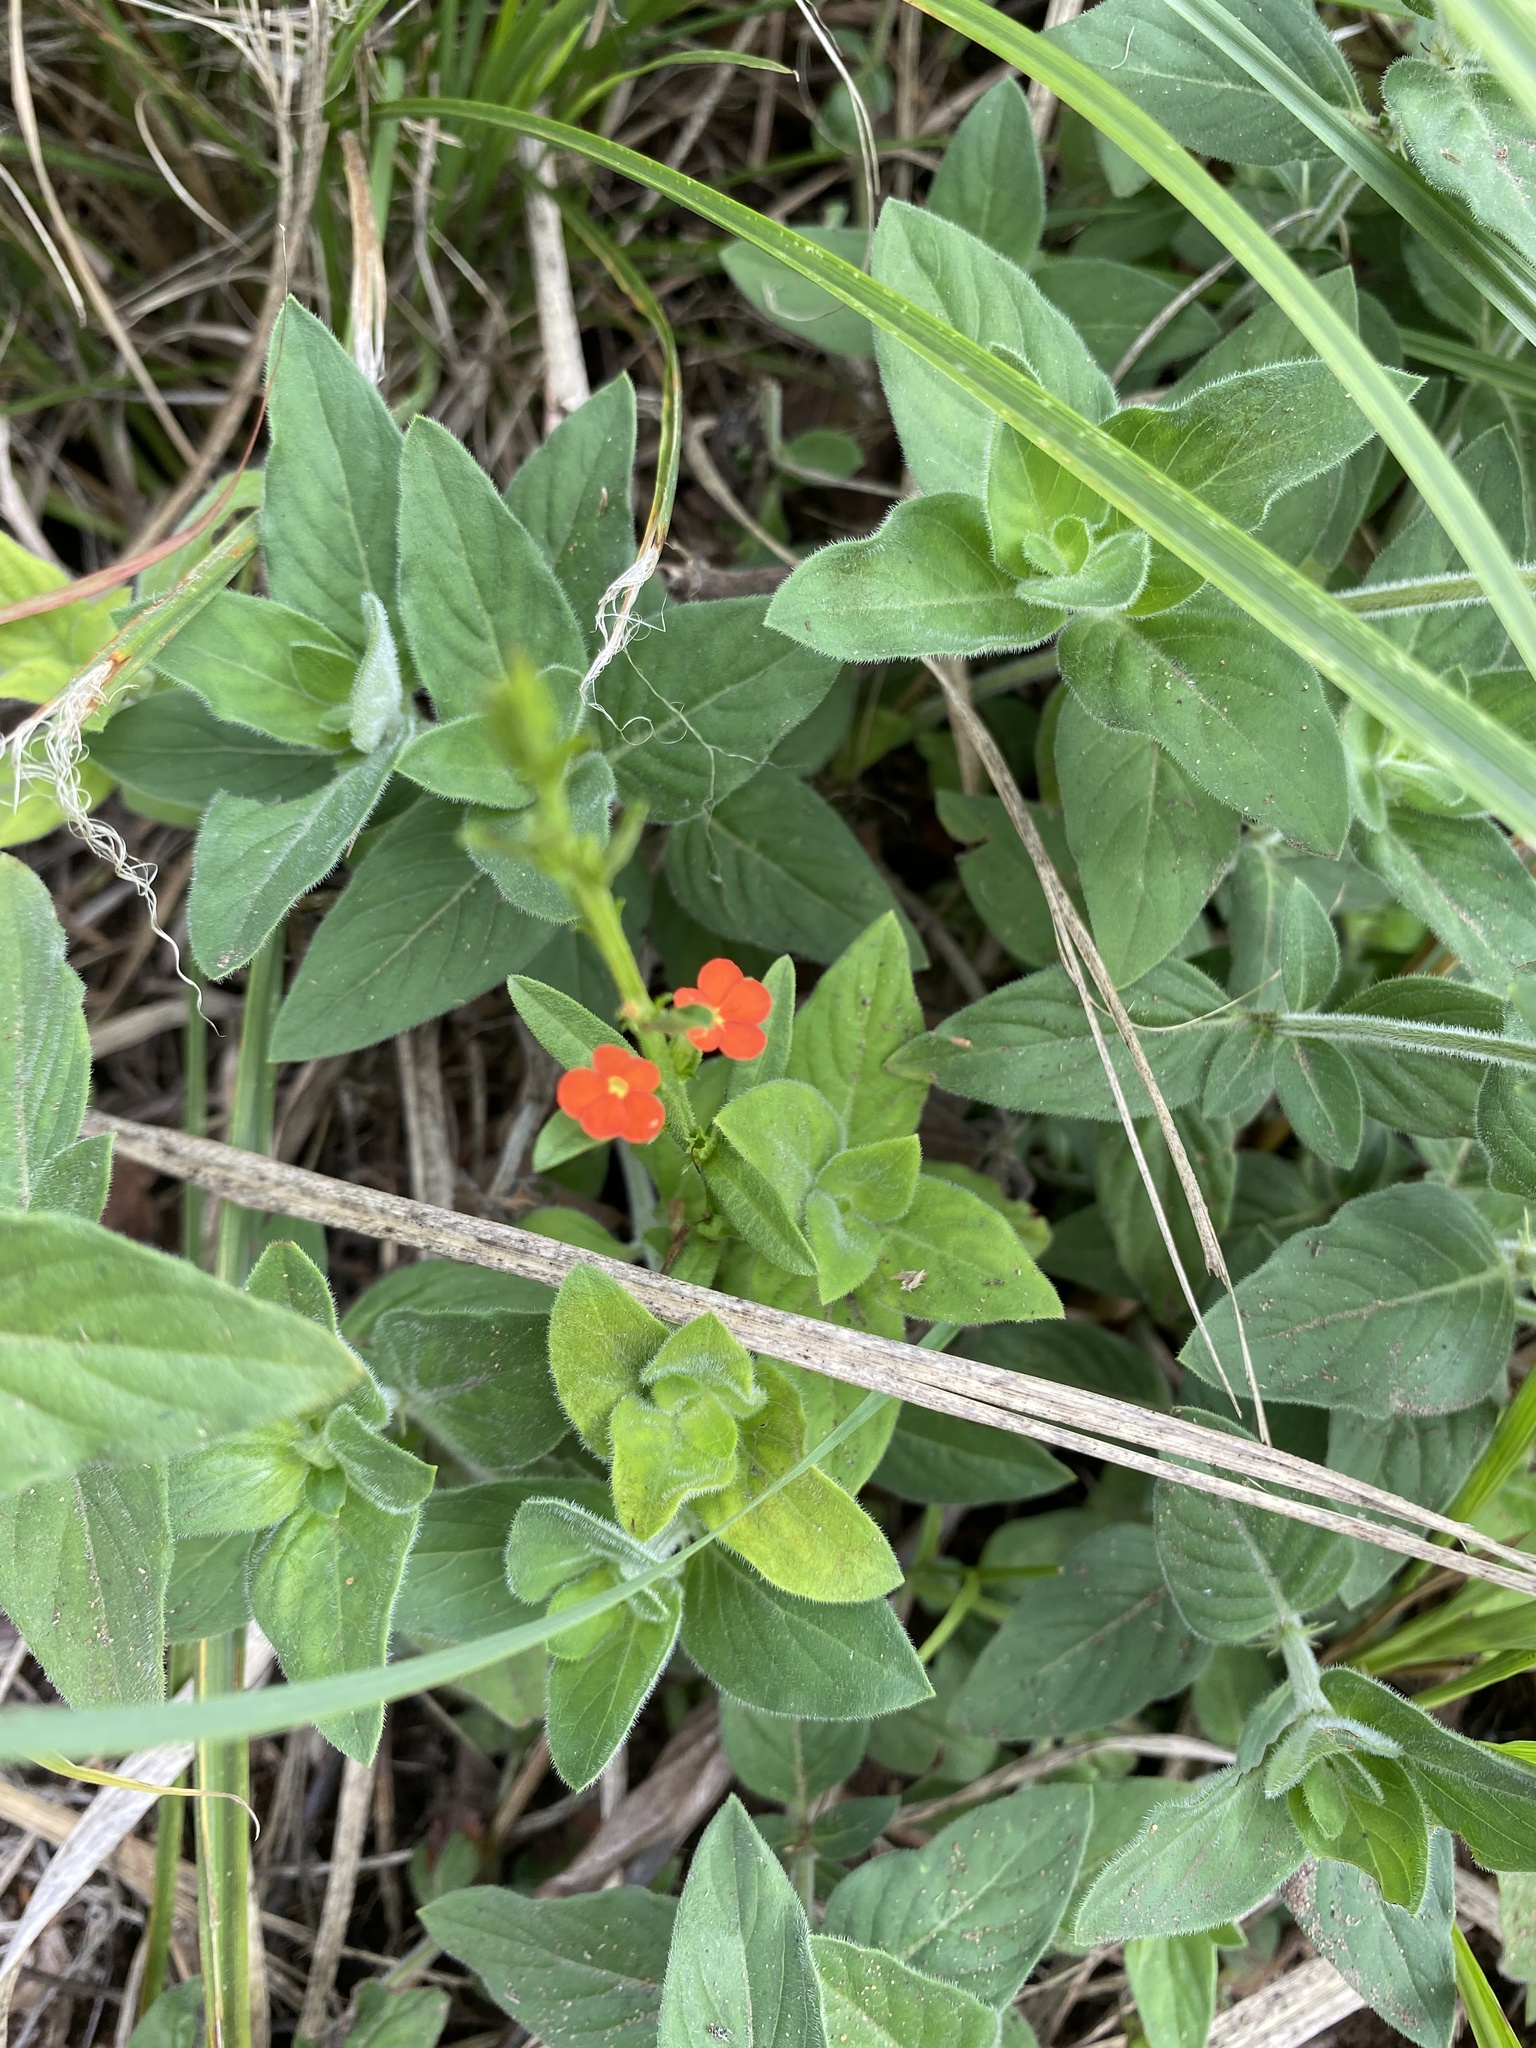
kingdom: Plantae
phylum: Tracheophyta
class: Magnoliopsida
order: Lamiales
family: Orobanchaceae
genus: Striga
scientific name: Striga asiatica
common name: Asiatic witchweed
